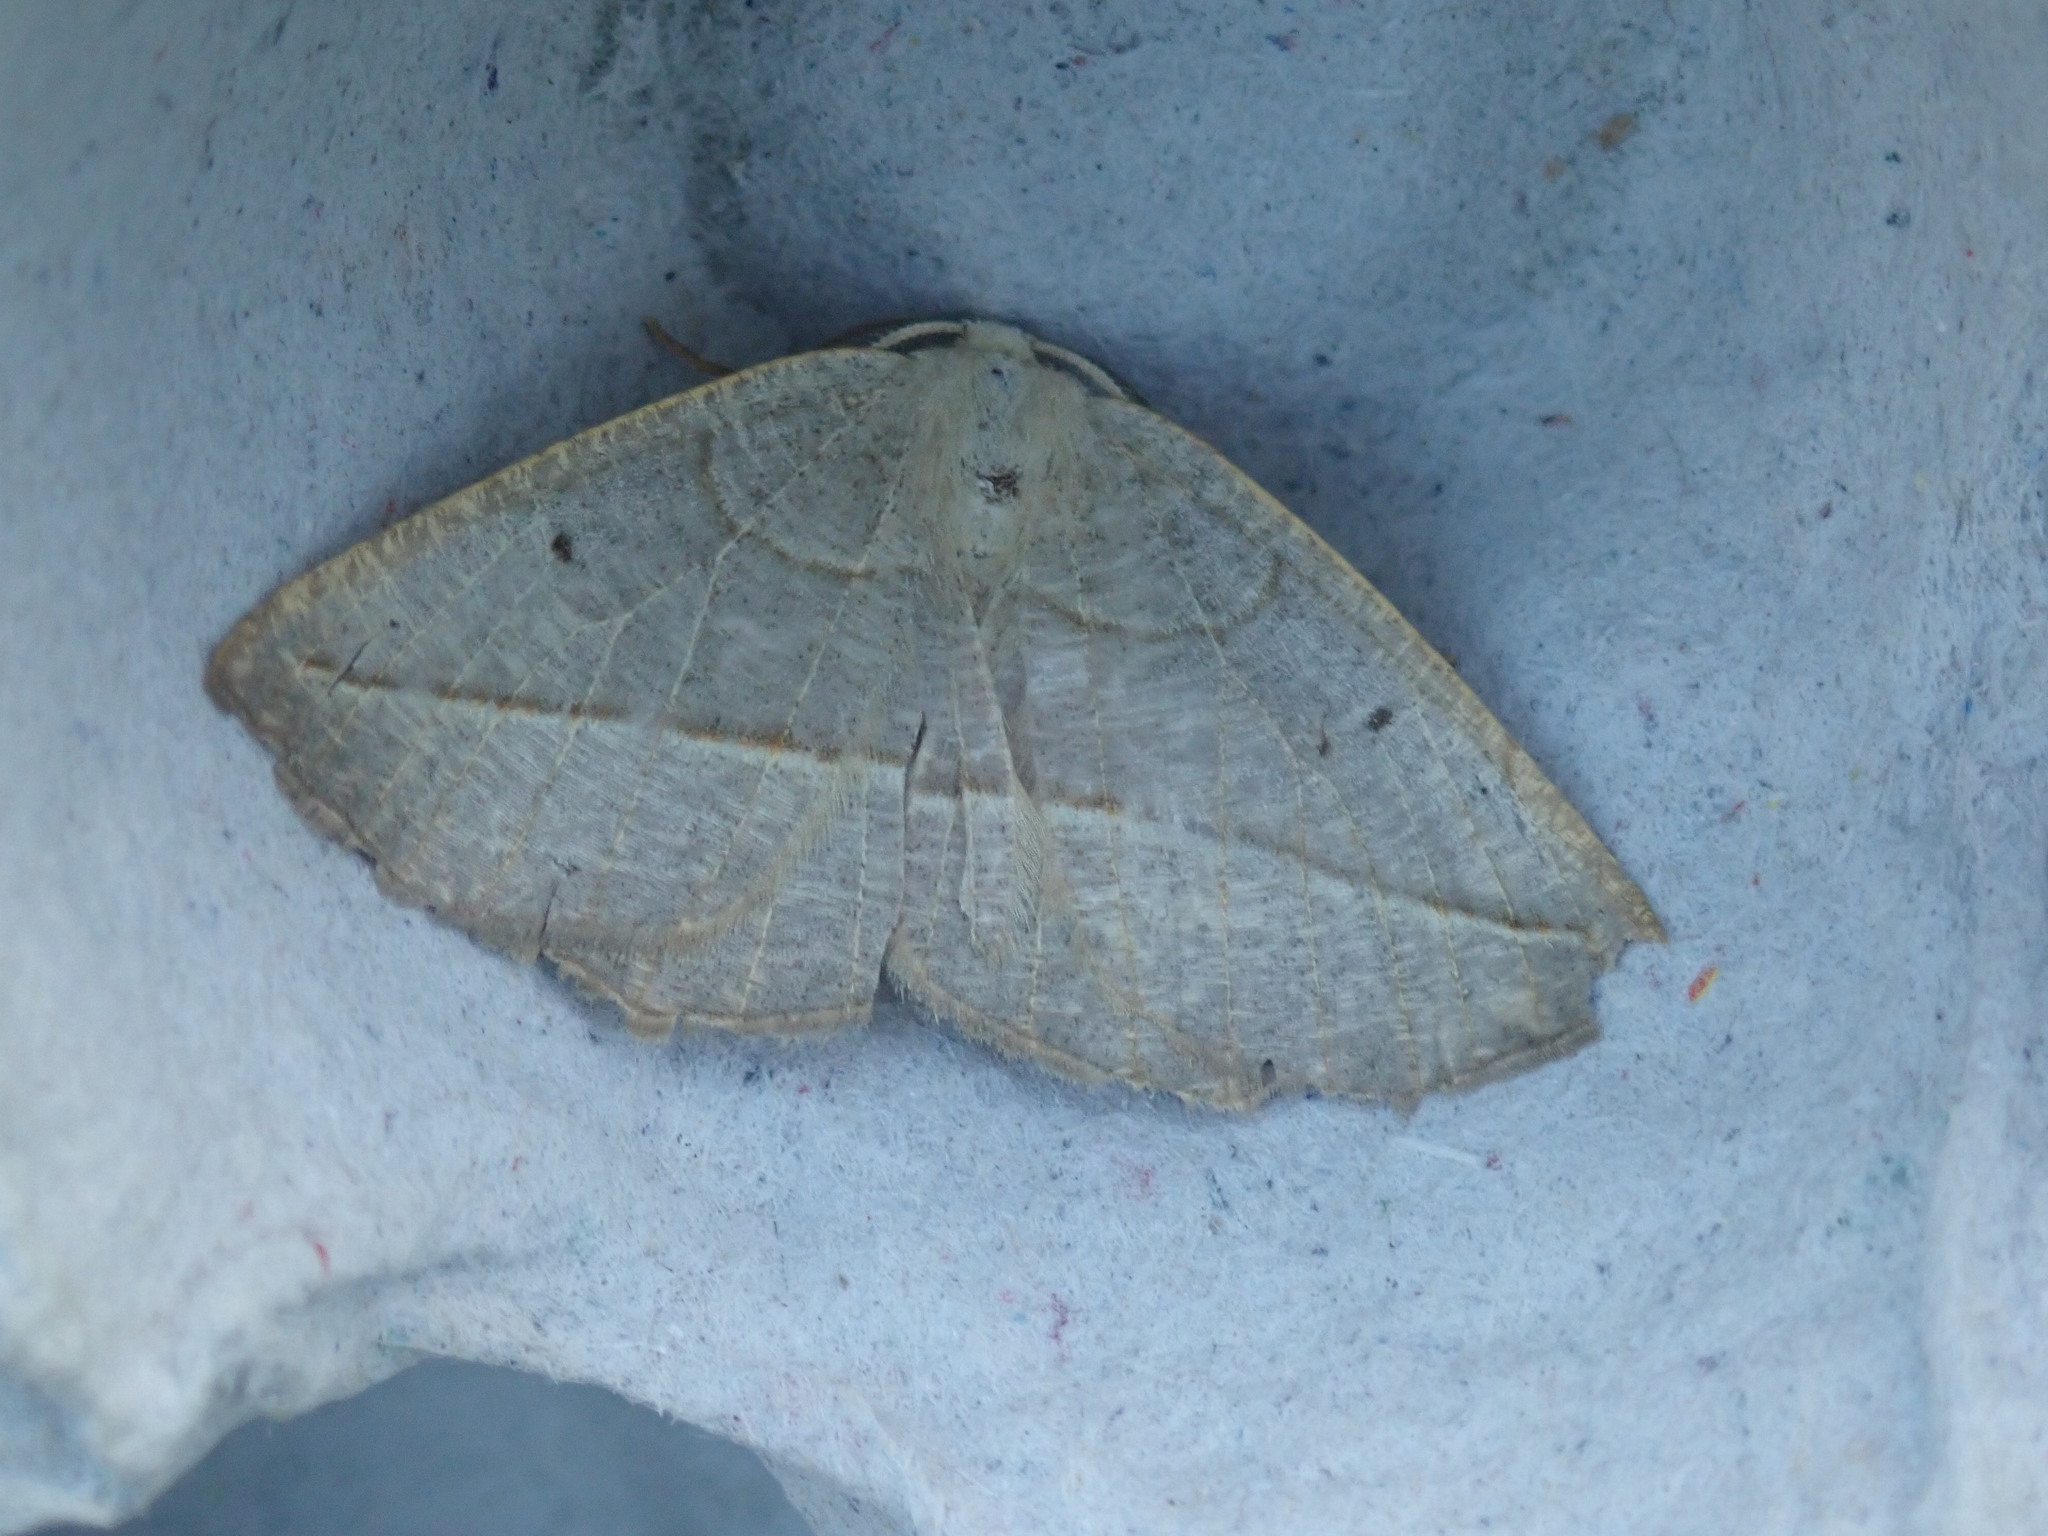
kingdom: Animalia
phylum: Arthropoda
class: Insecta
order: Lepidoptera
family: Geometridae
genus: Eusarca
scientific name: Eusarca confusaria
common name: Confused eusarca
